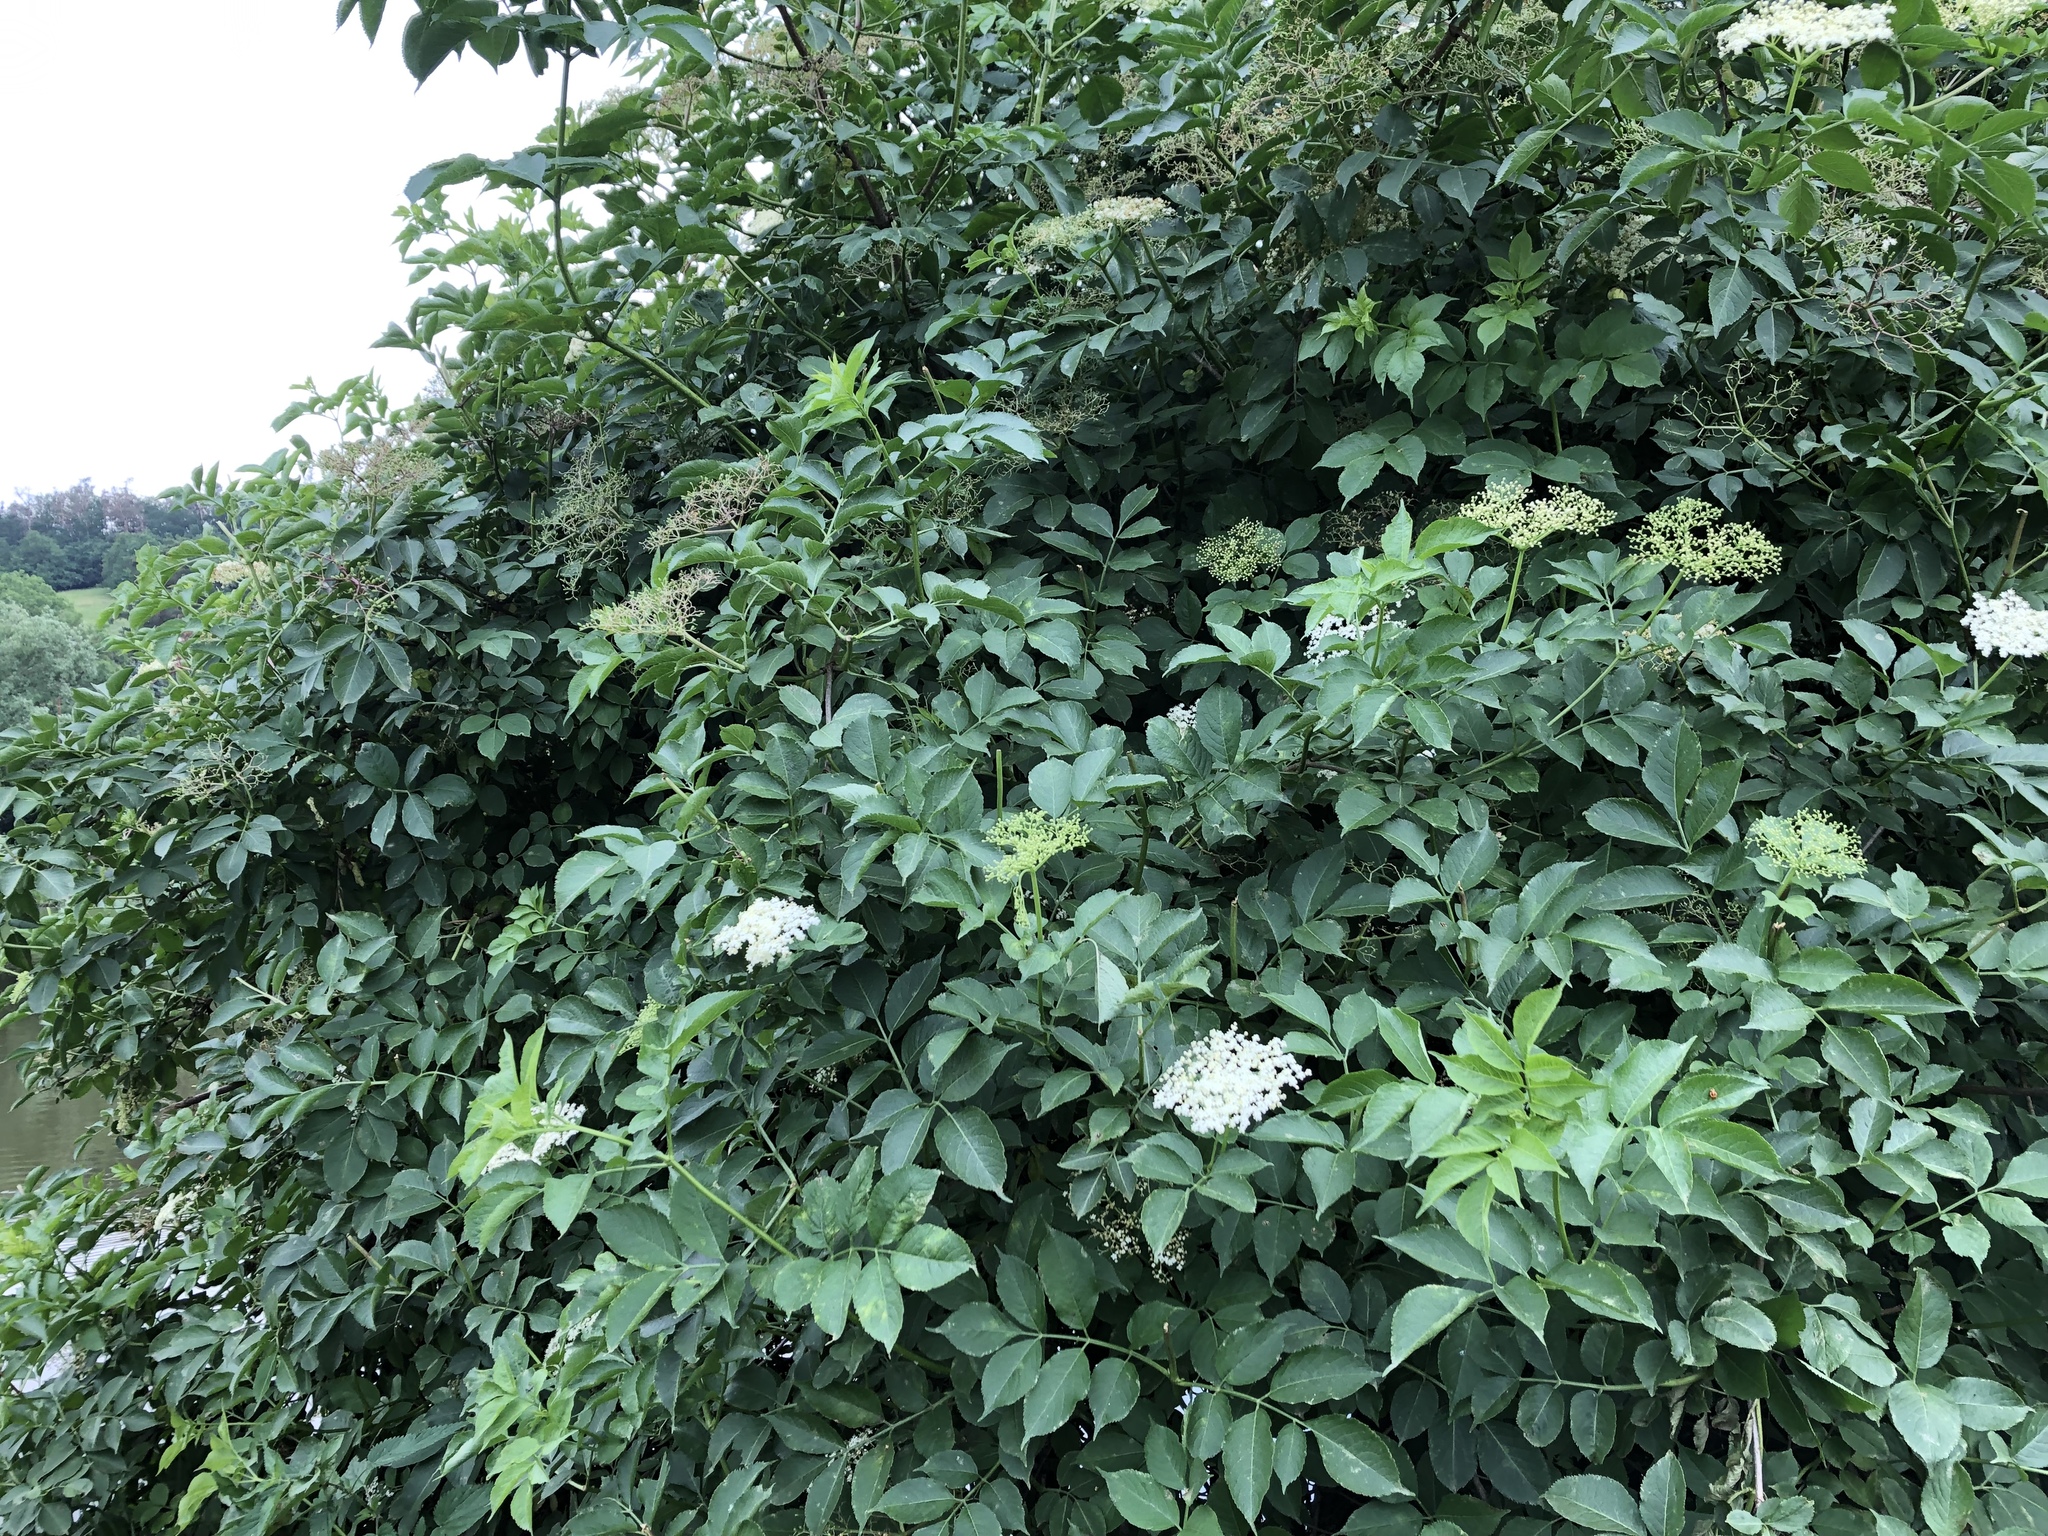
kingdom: Plantae
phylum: Tracheophyta
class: Magnoliopsida
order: Dipsacales
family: Viburnaceae
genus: Sambucus
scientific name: Sambucus nigra
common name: Elder
